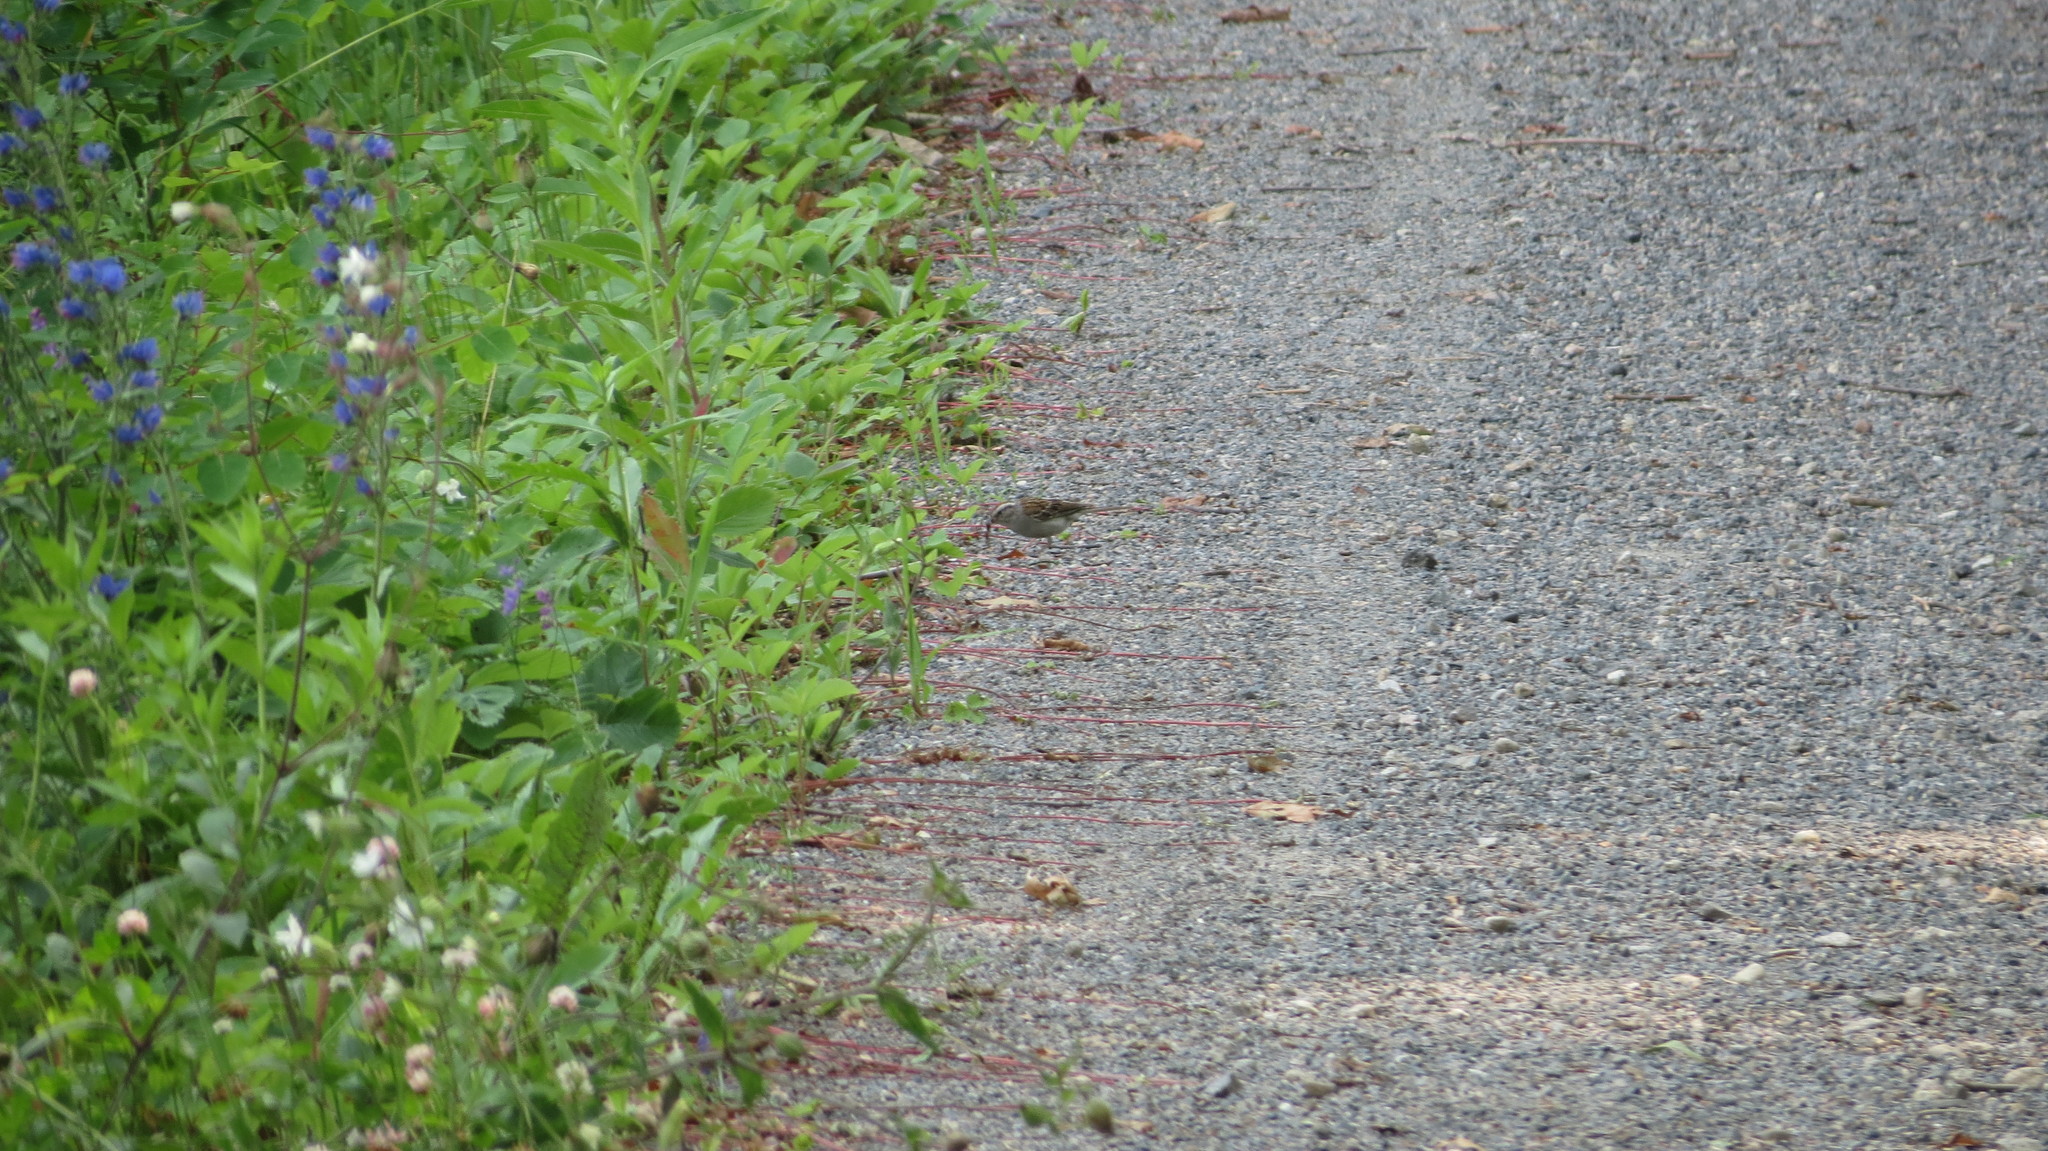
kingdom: Animalia
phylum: Chordata
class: Aves
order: Passeriformes
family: Passerellidae
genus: Spizella
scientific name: Spizella passerina
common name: Chipping sparrow
